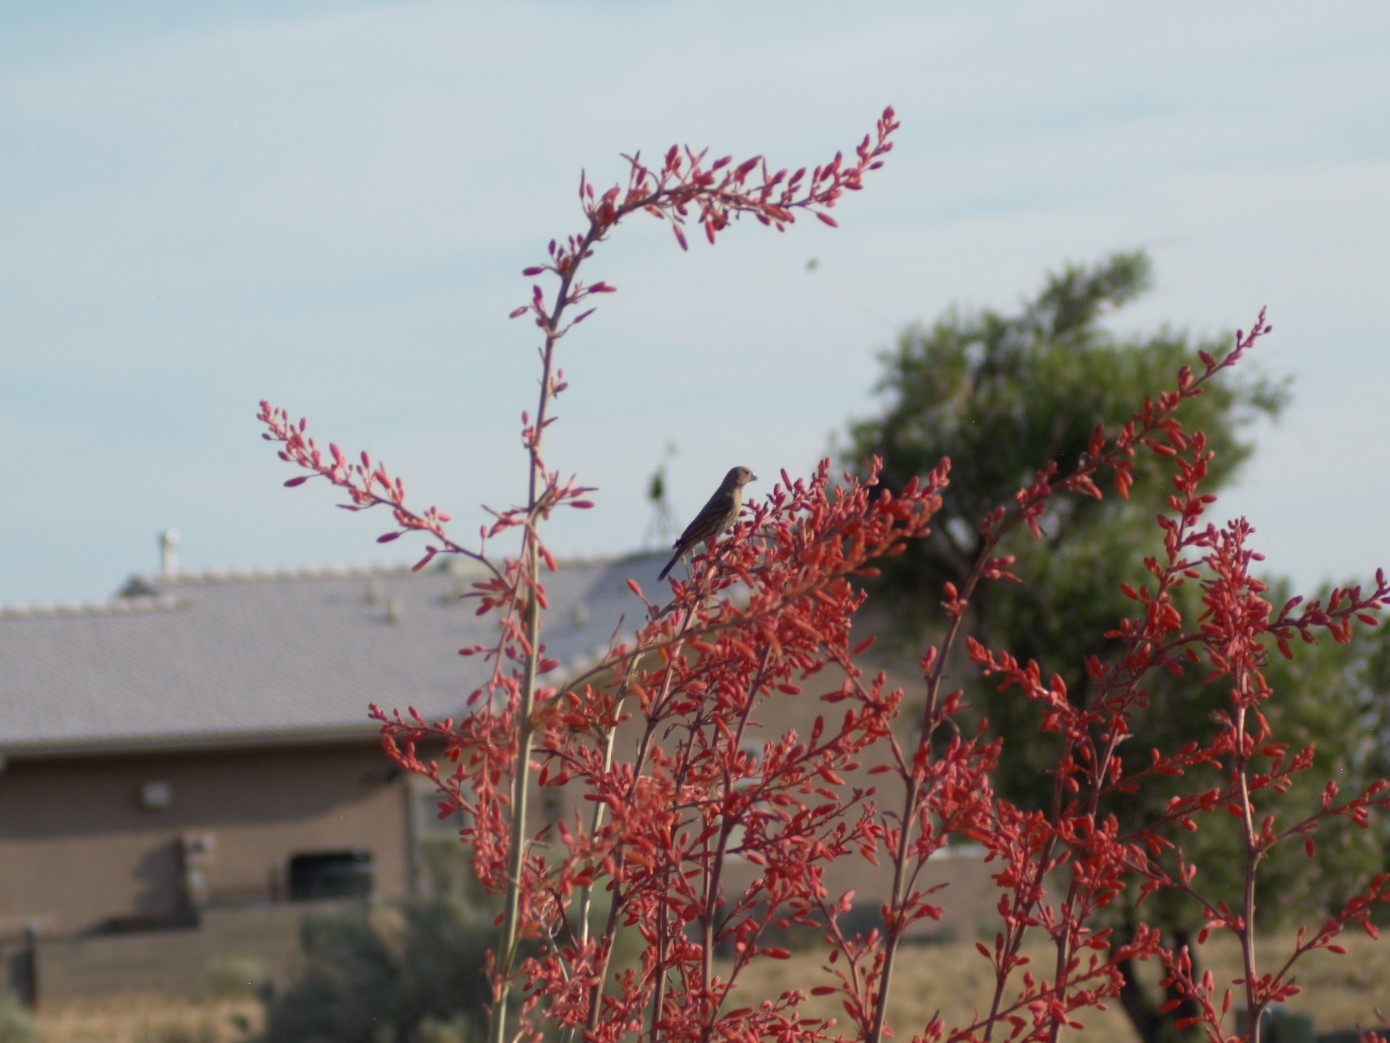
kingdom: Animalia
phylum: Chordata
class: Aves
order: Passeriformes
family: Fringillidae
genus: Haemorhous
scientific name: Haemorhous mexicanus
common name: House finch
